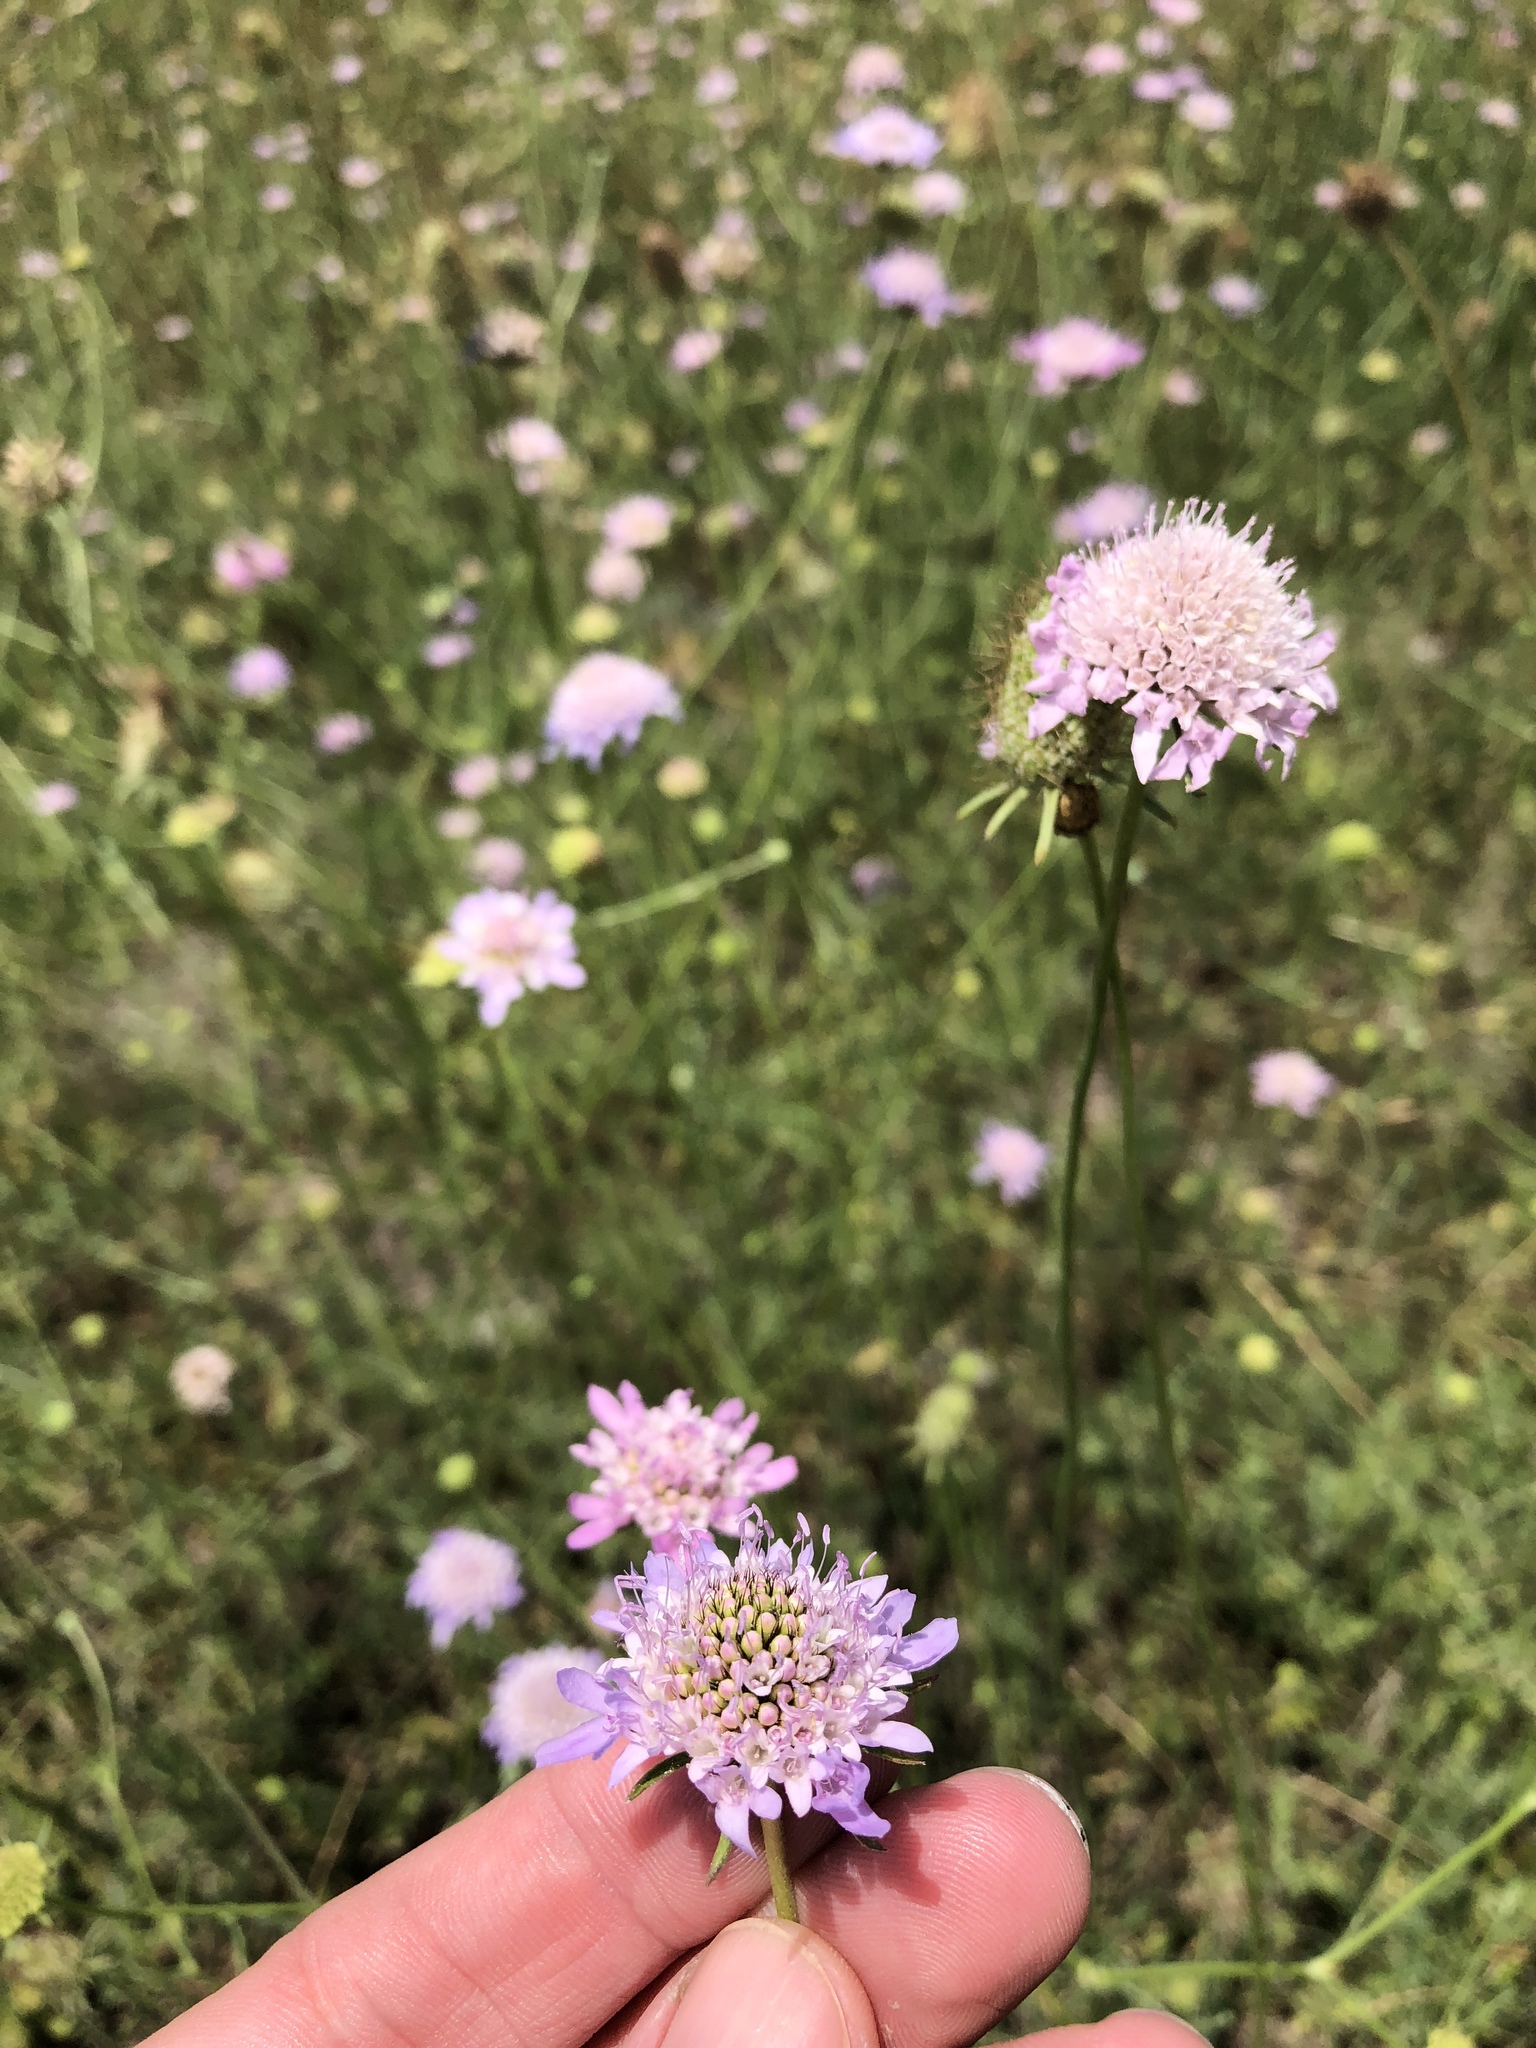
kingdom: Plantae
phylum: Tracheophyta
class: Magnoliopsida
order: Dipsacales
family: Caprifoliaceae
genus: Sixalix
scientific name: Sixalix atropurpurea
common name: Sweet scabious
